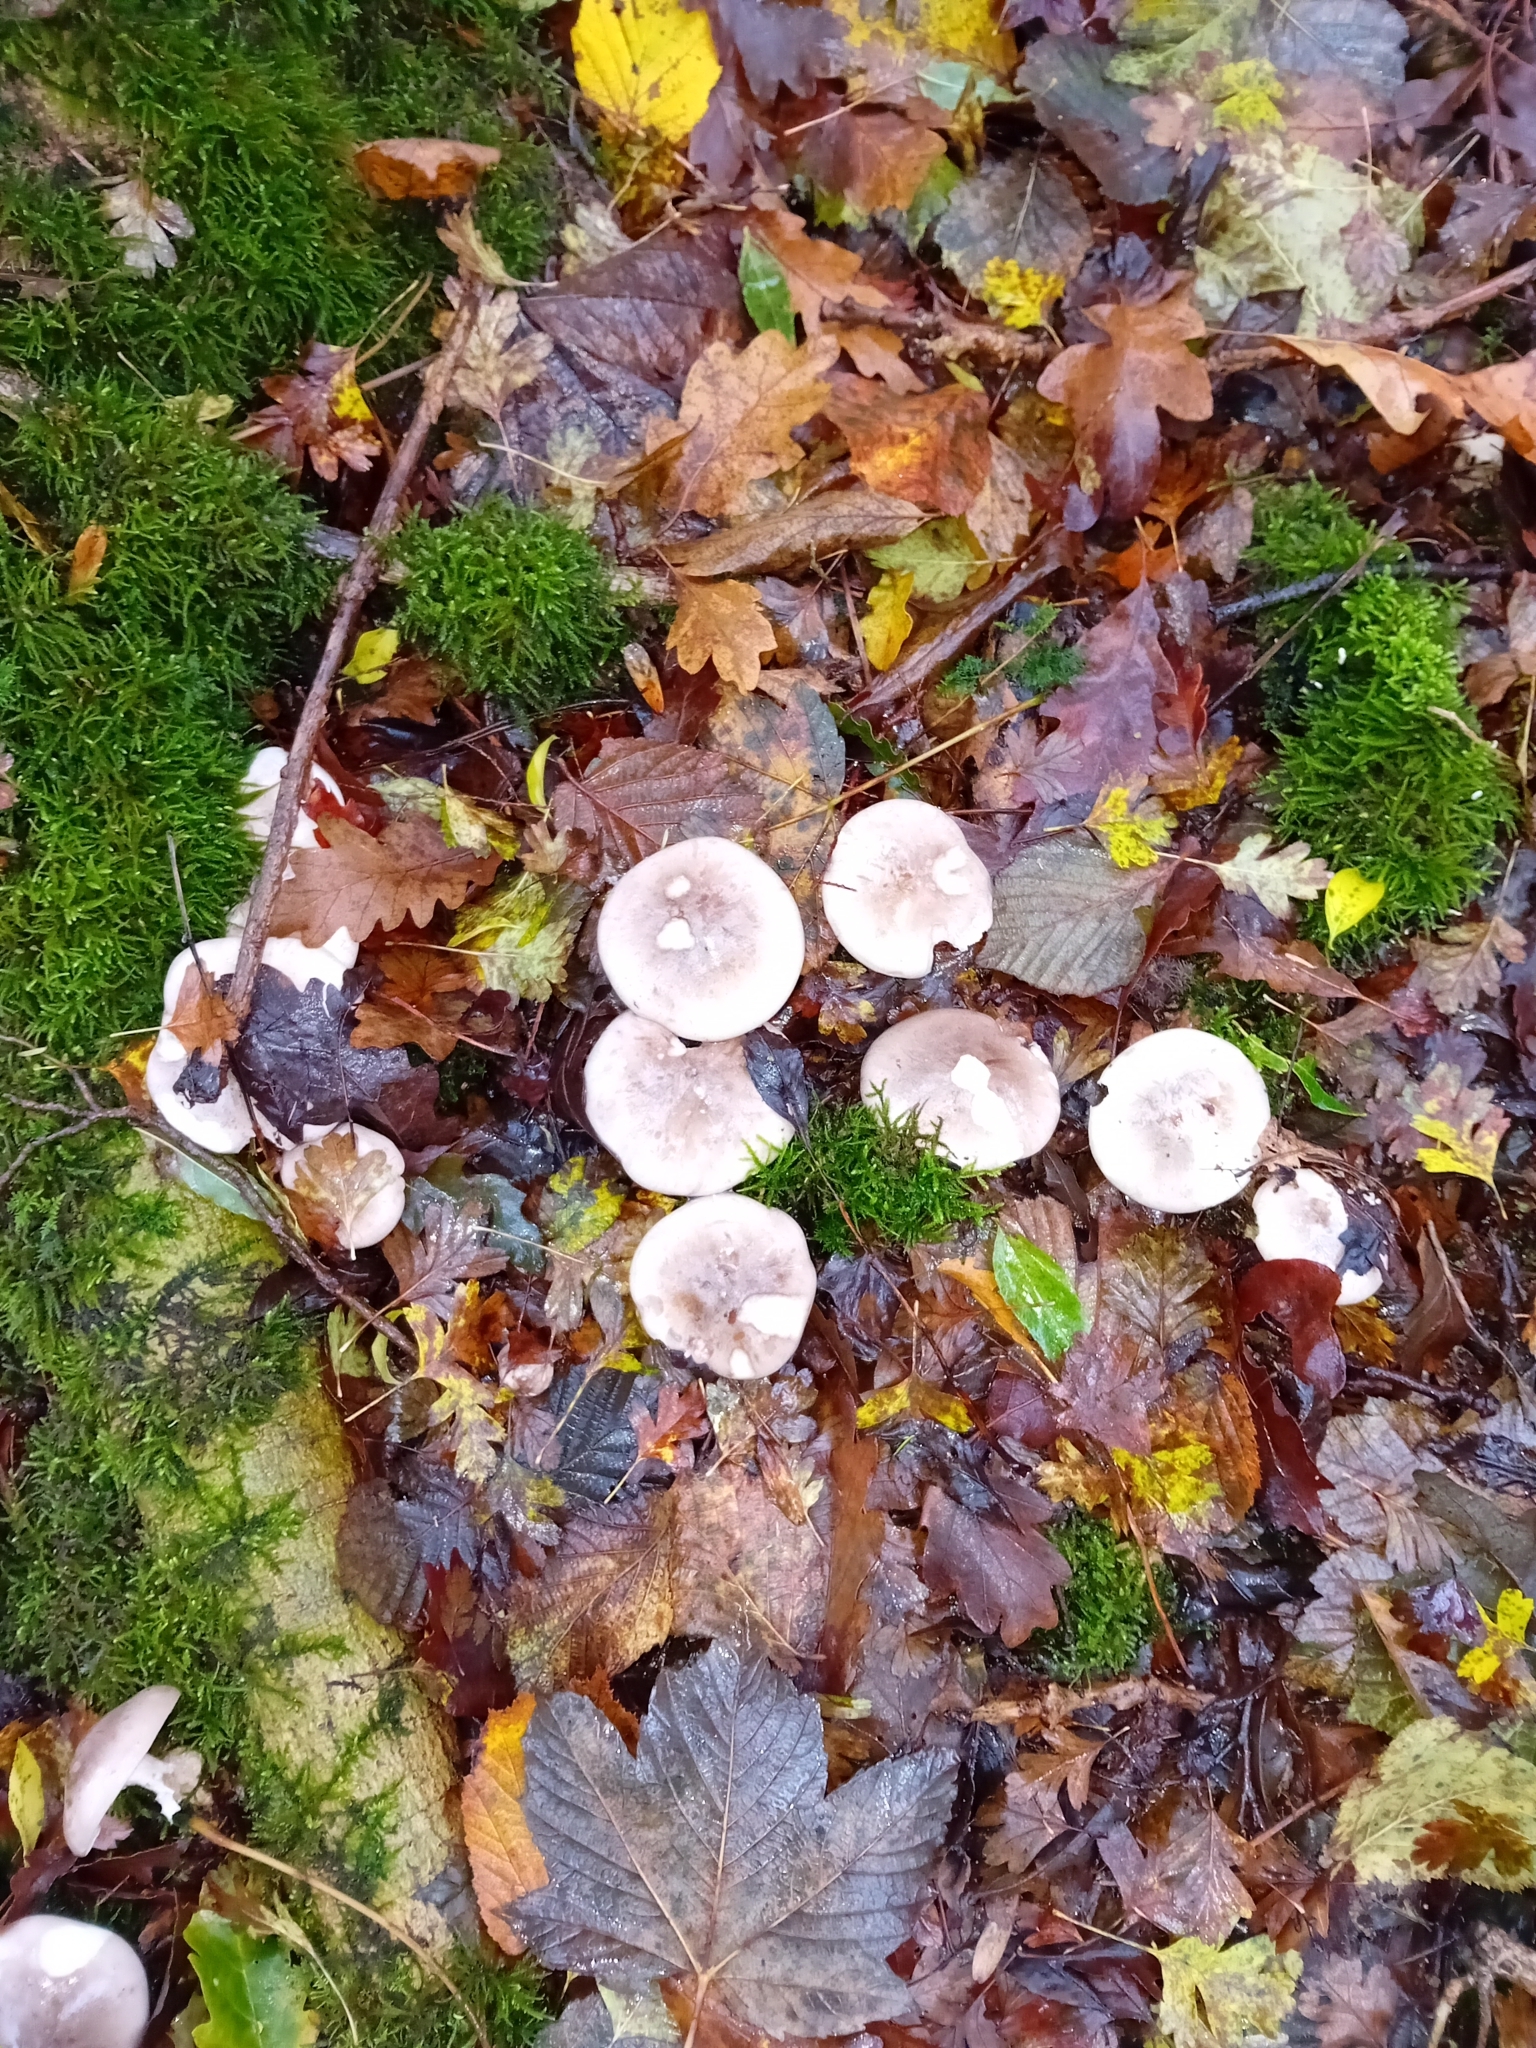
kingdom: Fungi
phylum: Basidiomycota
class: Agaricomycetes
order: Agaricales
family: Tricholomataceae
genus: Clitocybe
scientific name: Clitocybe nebularis
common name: Clouded agaric
